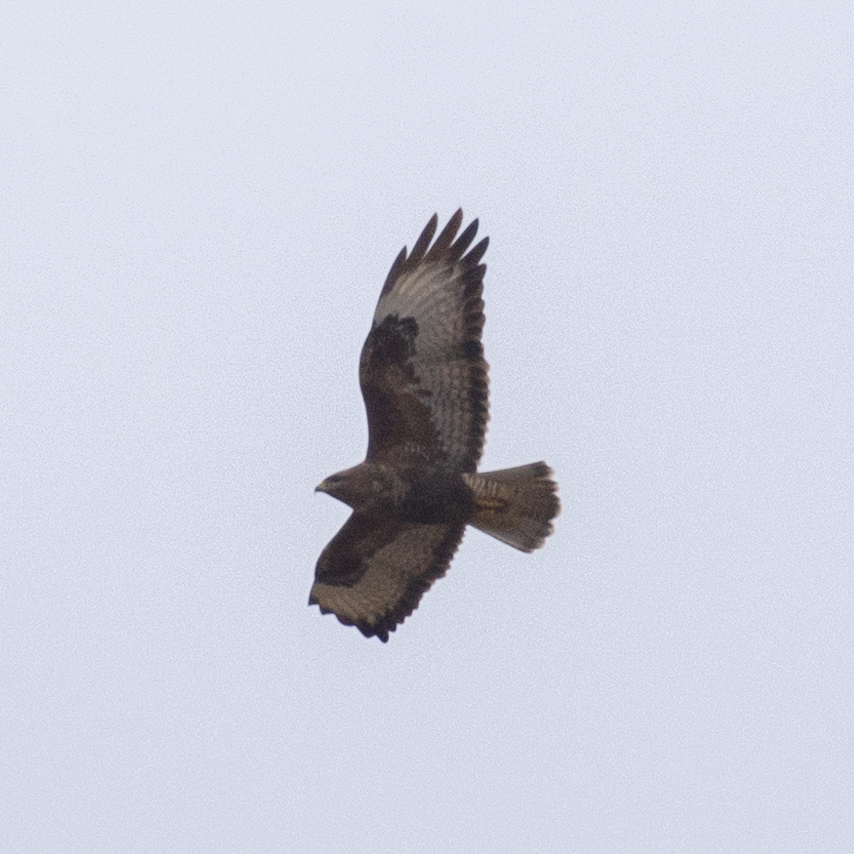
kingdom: Animalia
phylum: Chordata
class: Aves
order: Accipitriformes
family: Accipitridae
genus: Buteo
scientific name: Buteo buteo
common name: Common buzzard
